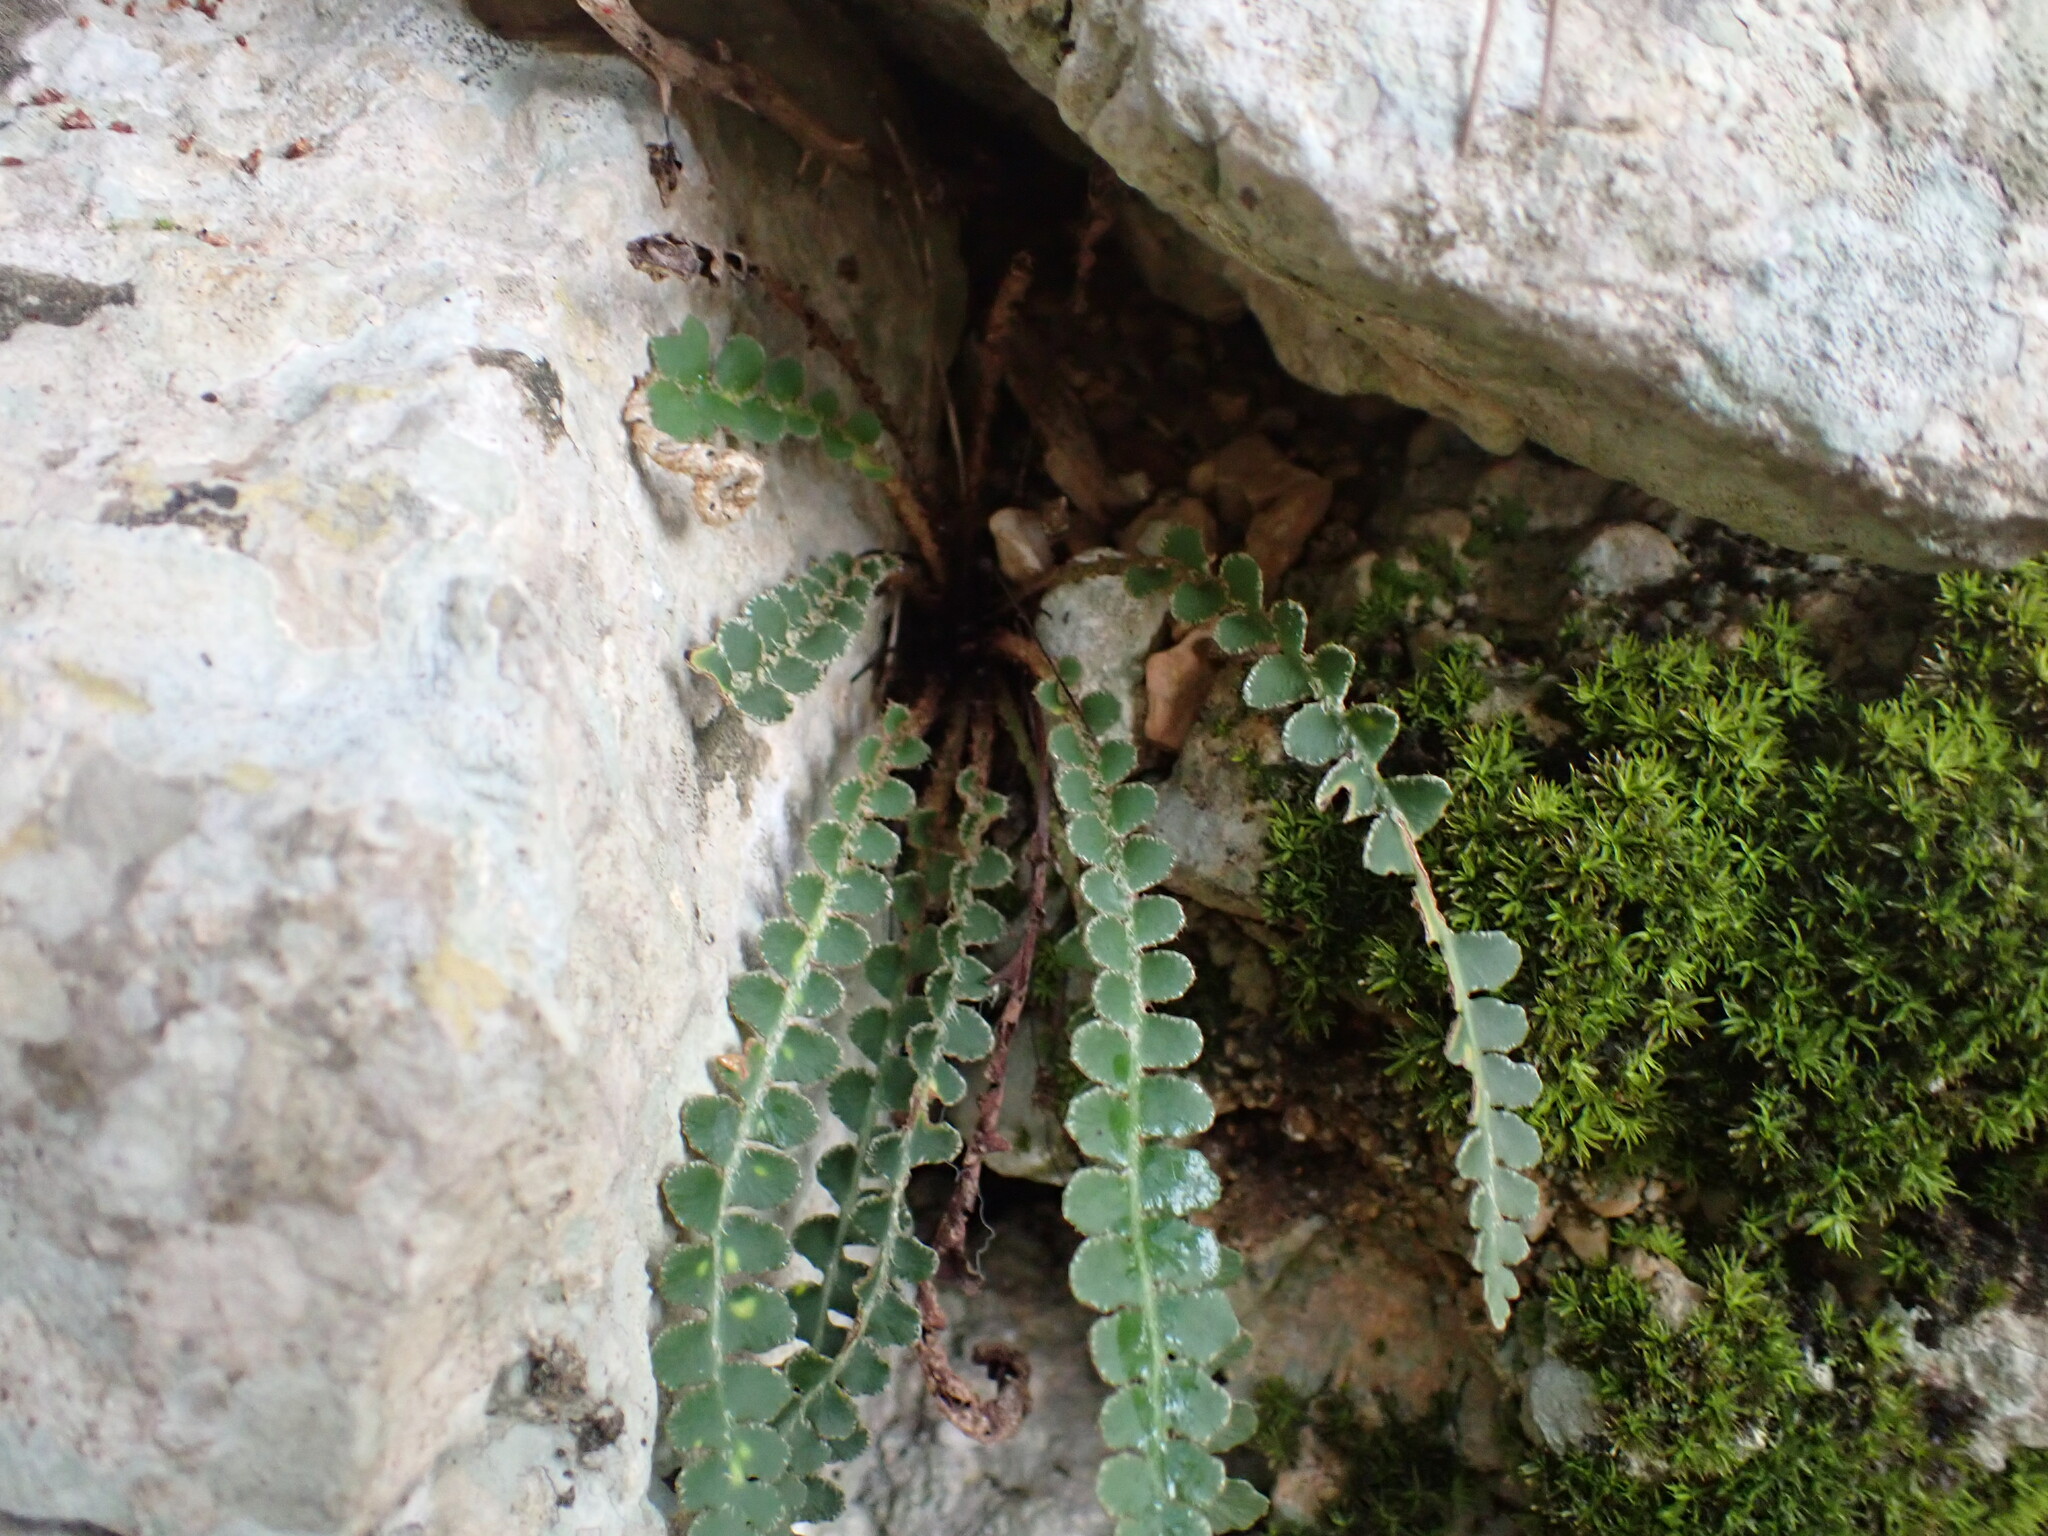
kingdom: Plantae
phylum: Tracheophyta
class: Polypodiopsida
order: Polypodiales
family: Aspleniaceae
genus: Asplenium
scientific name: Asplenium ceterach
